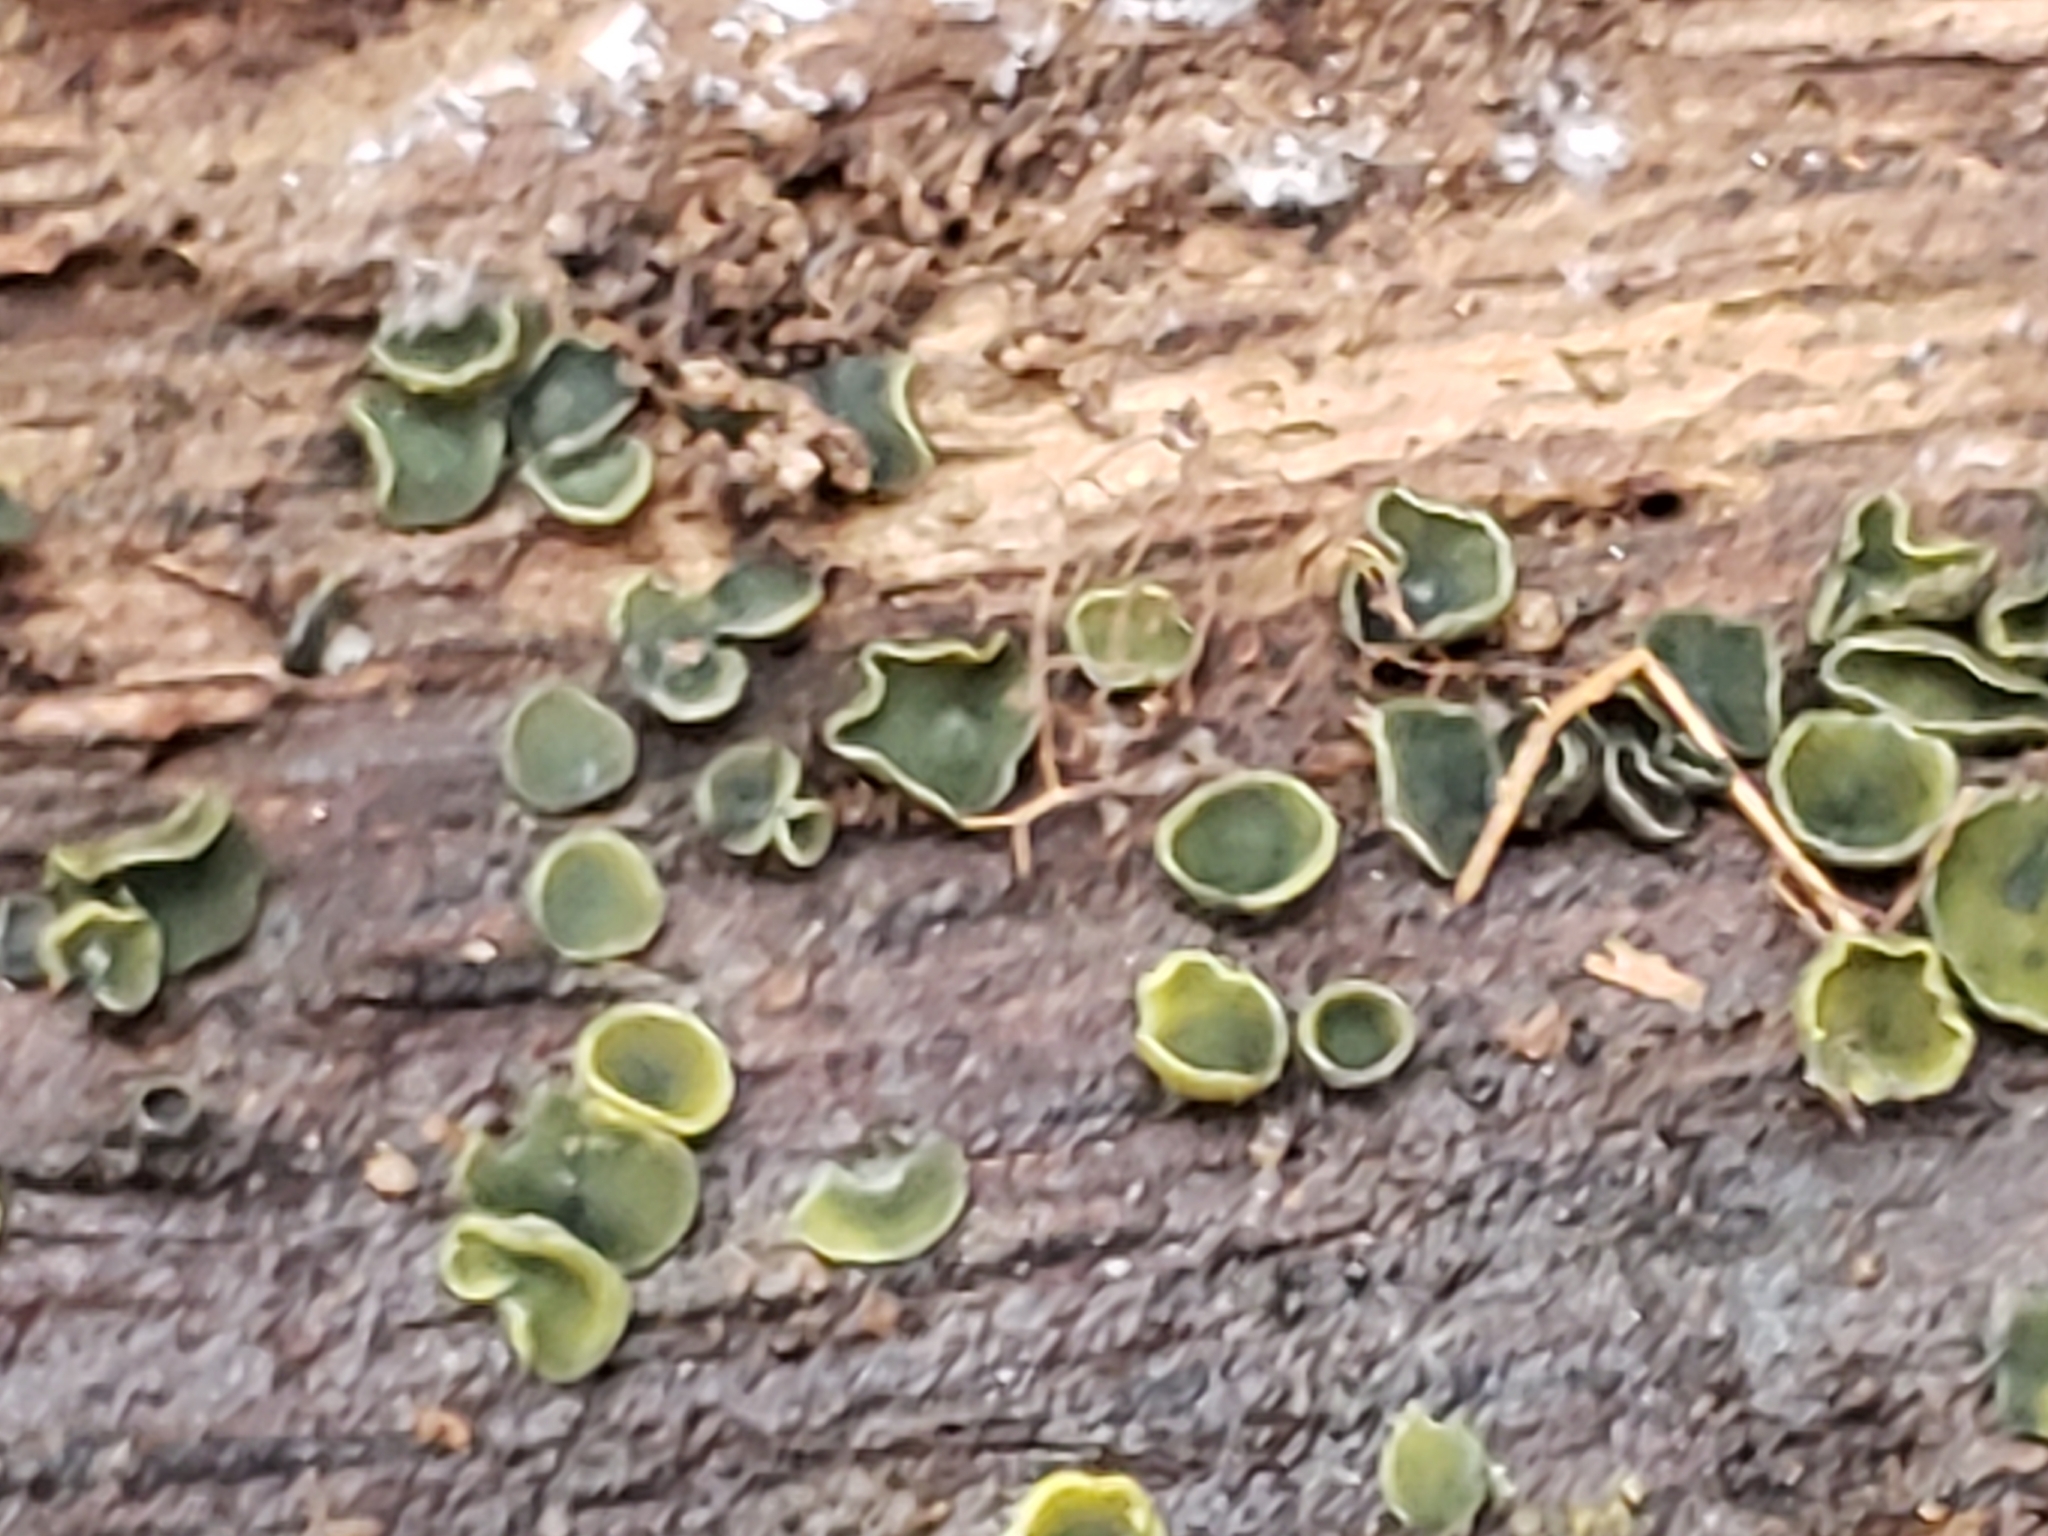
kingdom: Fungi
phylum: Ascomycota
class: Leotiomycetes
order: Helotiales
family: Chlorospleniaceae
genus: Chlorosplenium
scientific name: Chlorosplenium chlora
